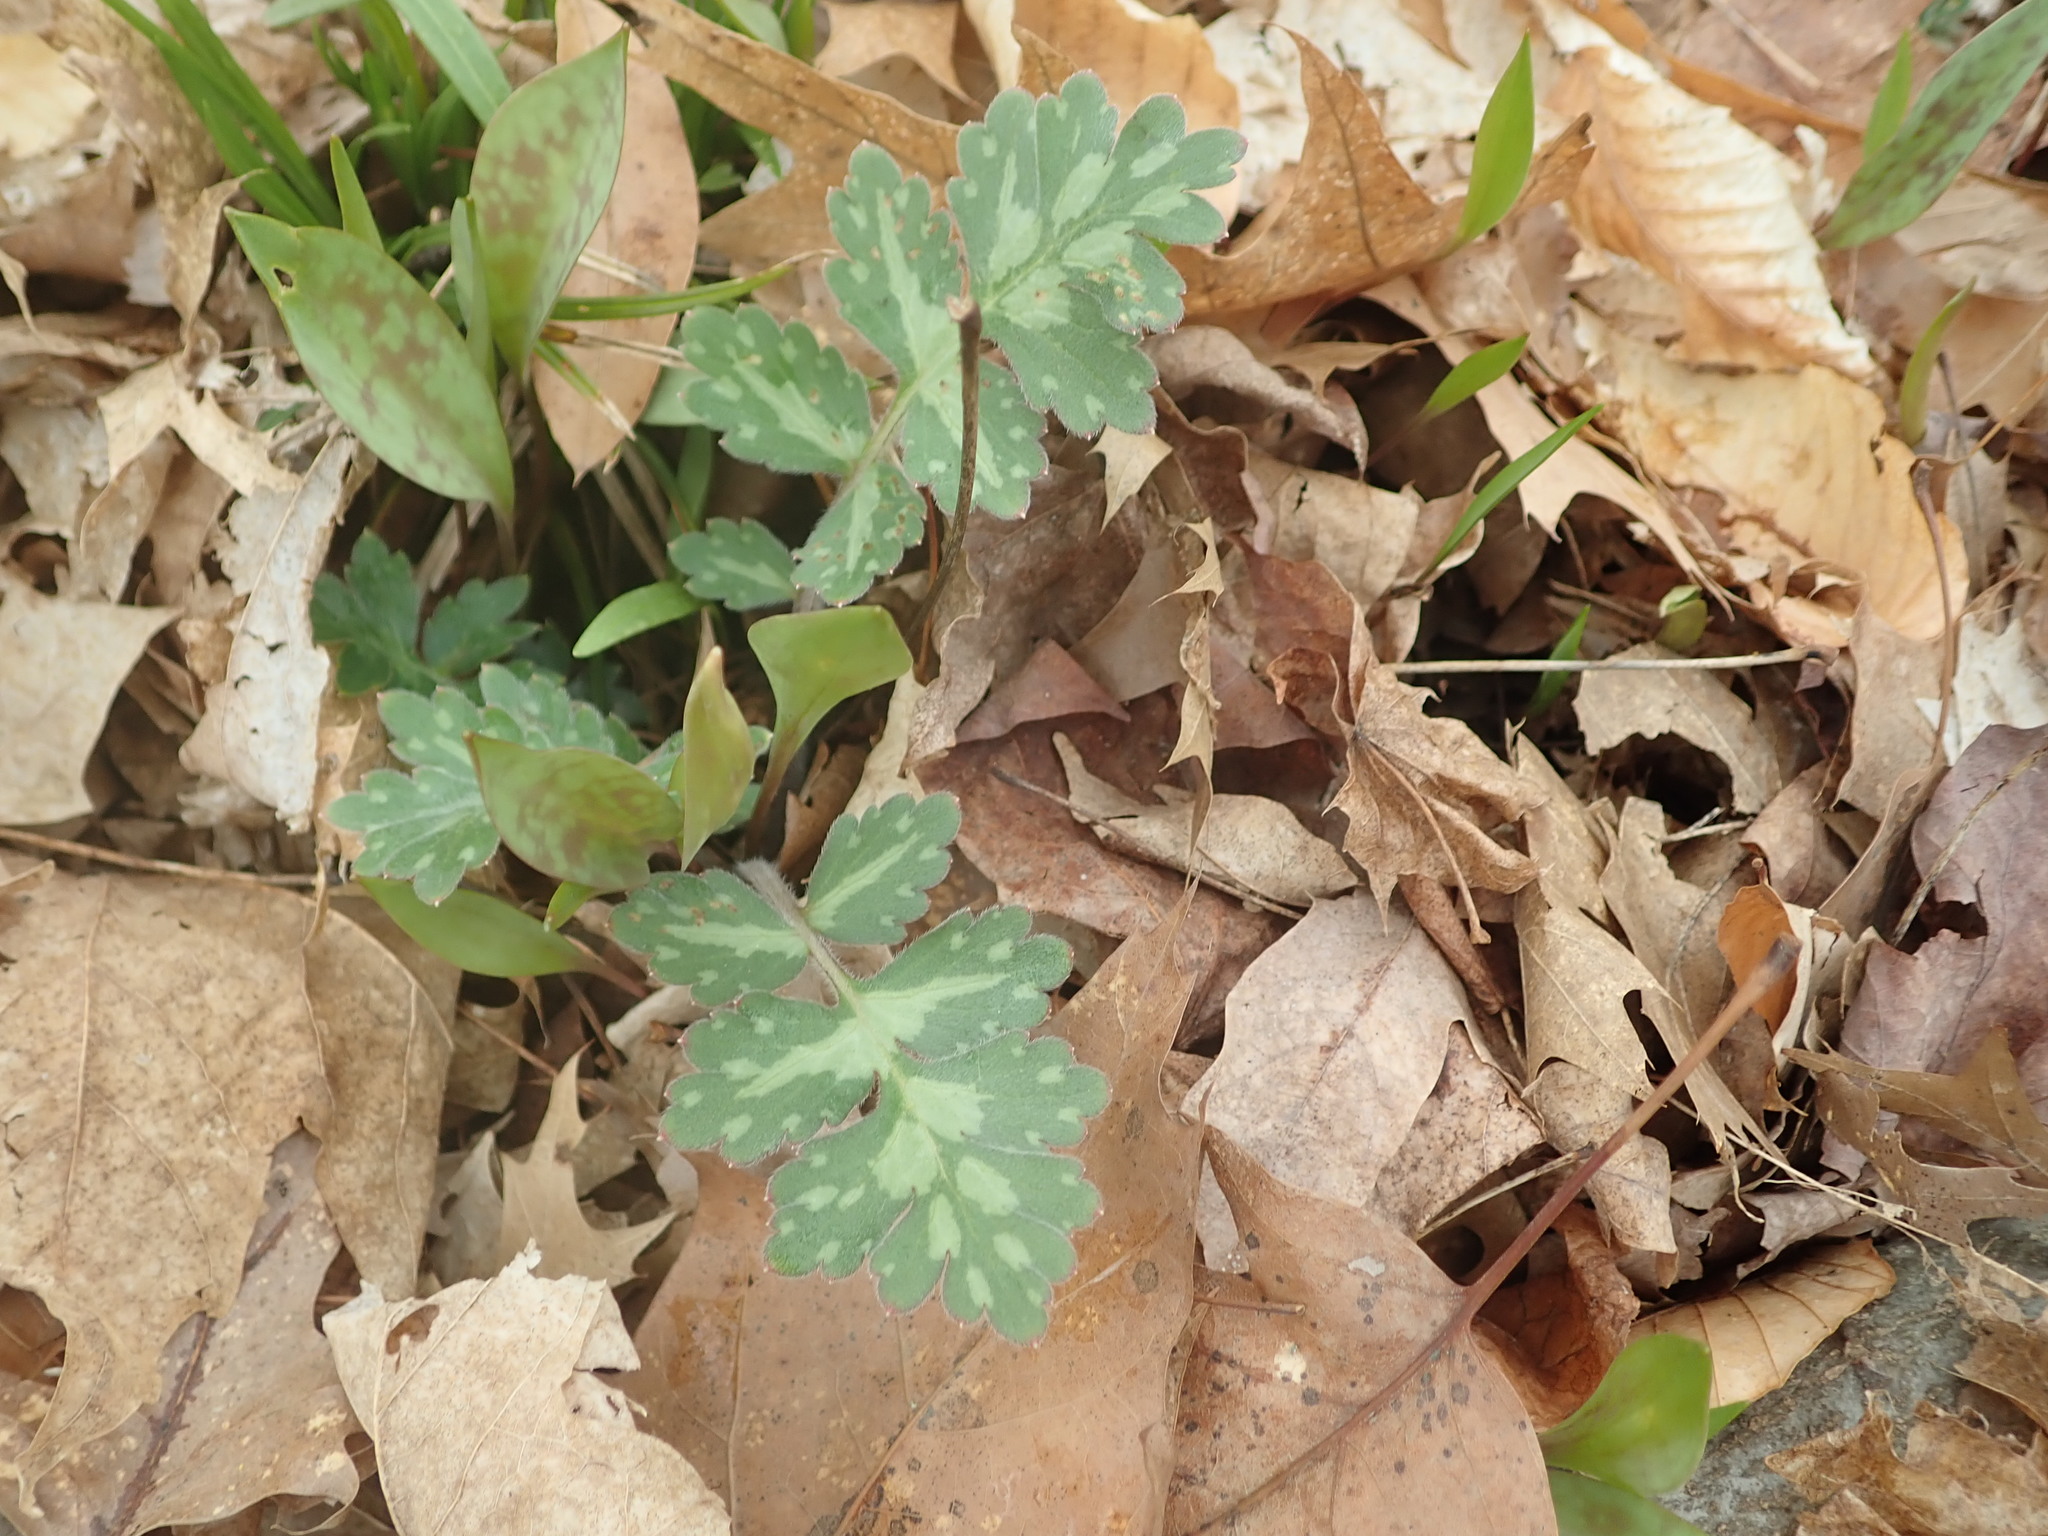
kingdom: Plantae
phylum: Tracheophyta
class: Magnoliopsida
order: Boraginales
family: Hydrophyllaceae
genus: Hydrophyllum
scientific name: Hydrophyllum macrophyllum
